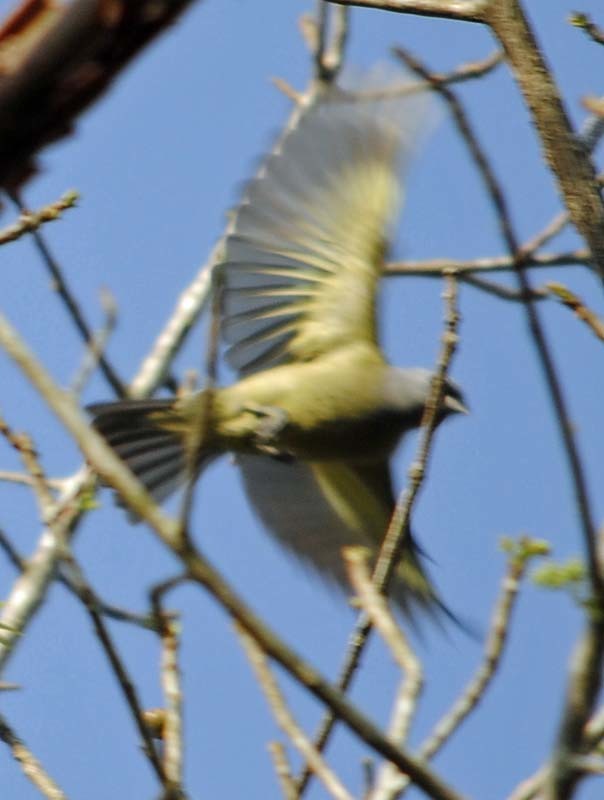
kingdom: Animalia
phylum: Chordata
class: Aves
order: Passeriformes
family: Thraupidae
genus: Thraupis
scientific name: Thraupis abbas
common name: Yellow-winged tanager
